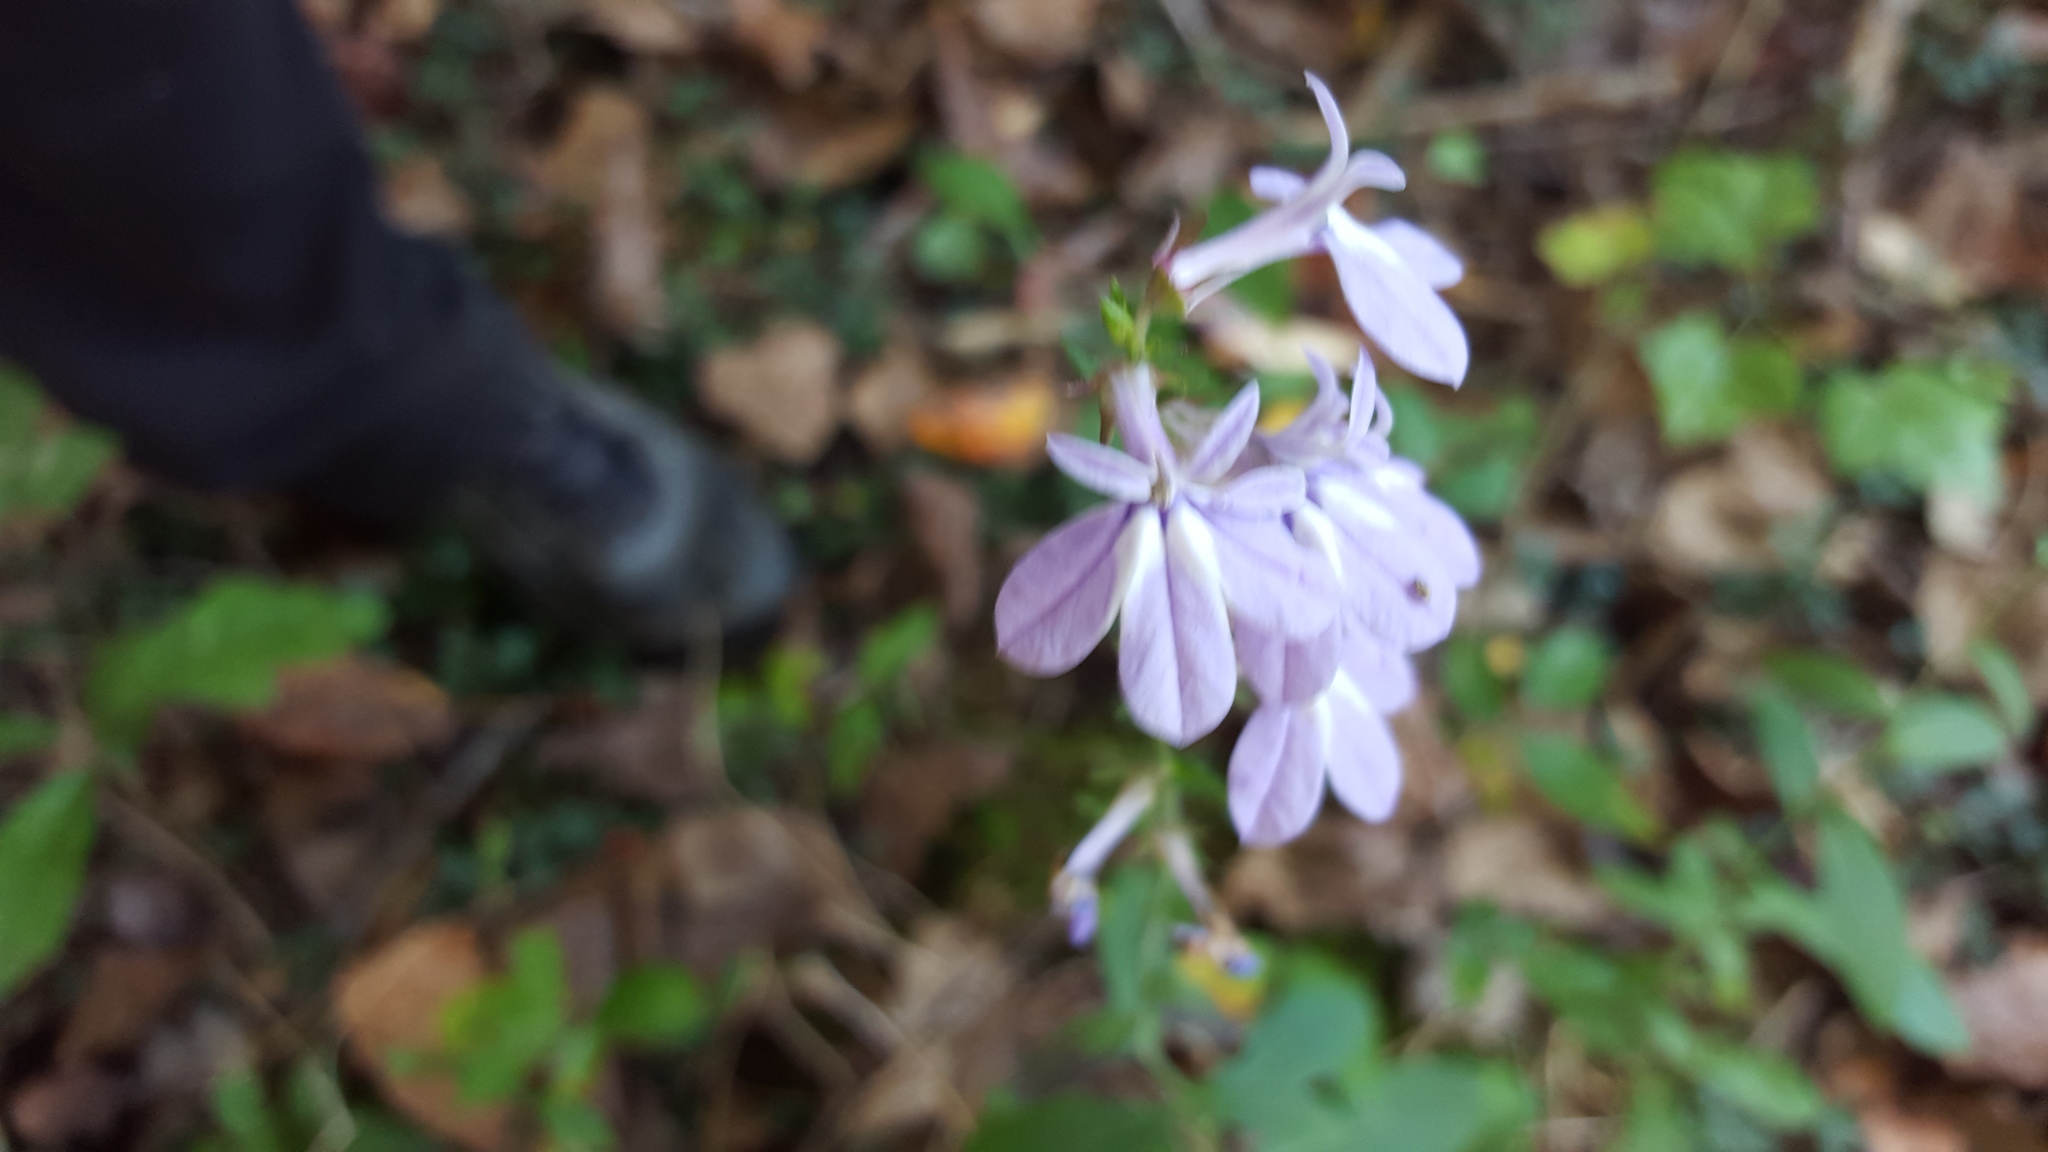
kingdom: Plantae
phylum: Tracheophyta
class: Magnoliopsida
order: Asterales
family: Campanulaceae
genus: Lobelia
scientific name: Lobelia puberula
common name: Purple dewdrop
